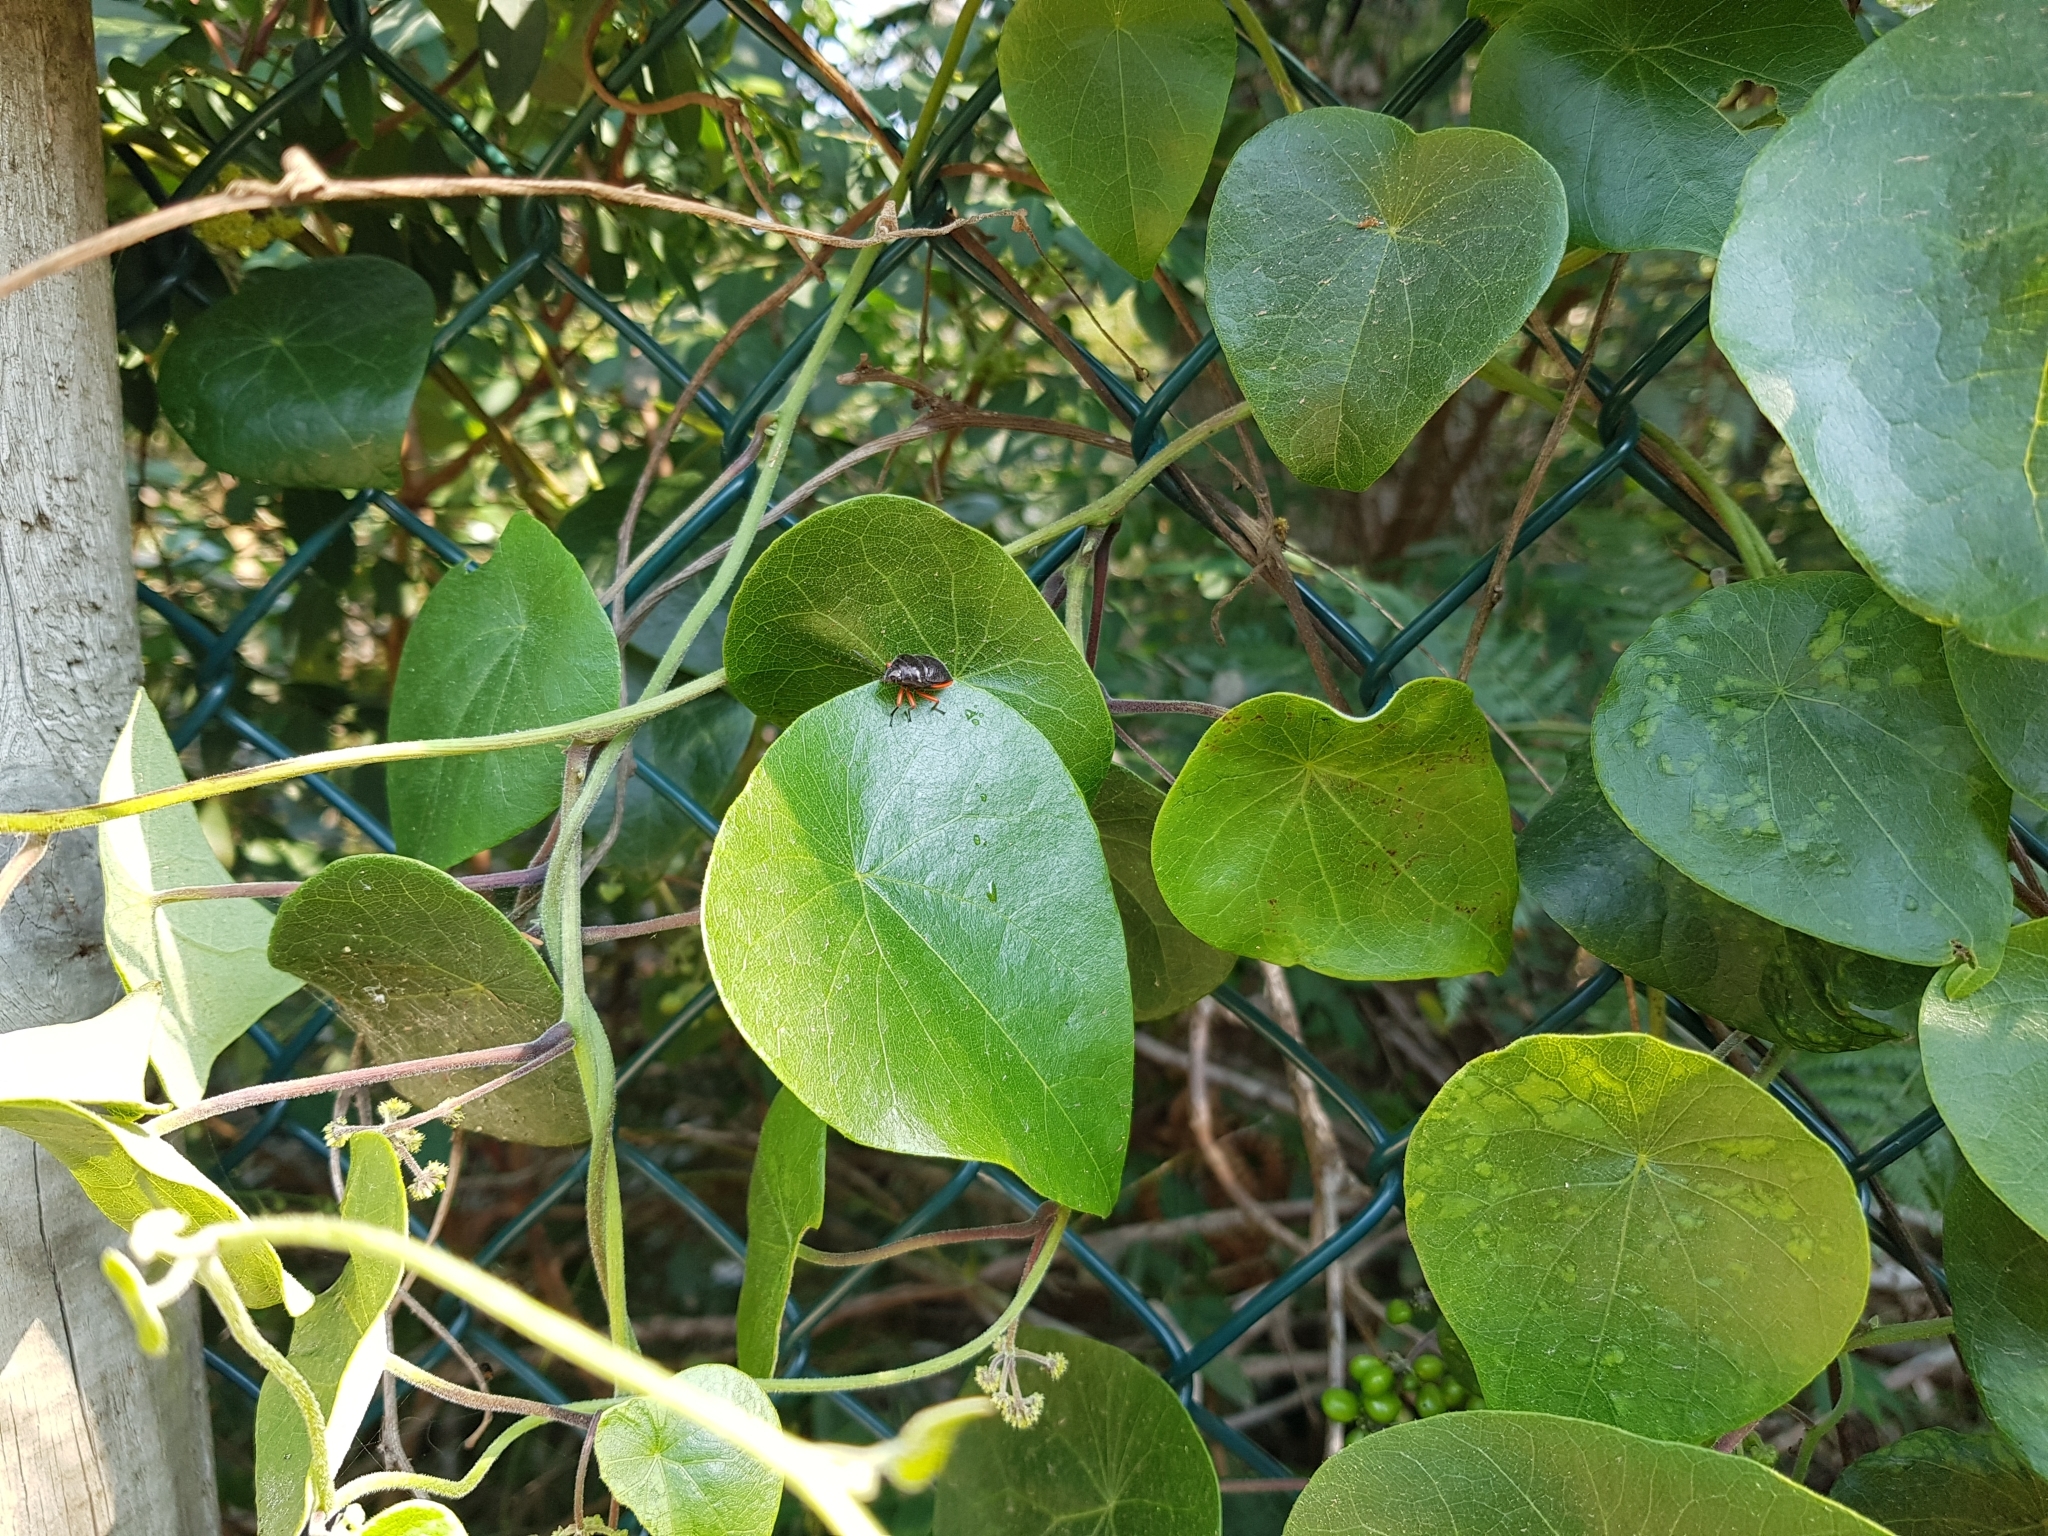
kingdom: Animalia
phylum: Arthropoda
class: Insecta
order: Hemiptera
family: Scutelleridae
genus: Lampromicra
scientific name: Lampromicra
